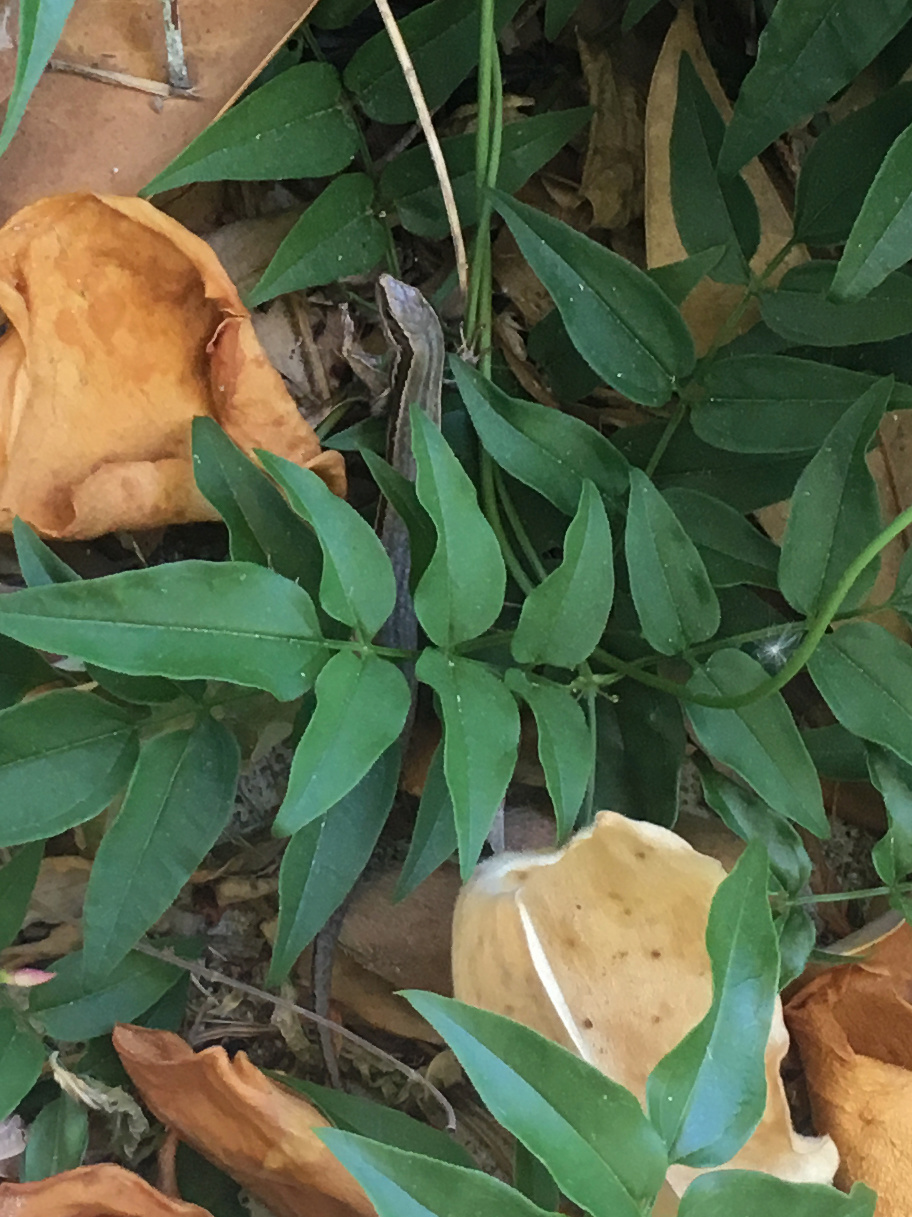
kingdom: Animalia
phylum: Chordata
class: Squamata
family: Scincidae
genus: Oligosoma
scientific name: Oligosoma maccanni
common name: Mccann’s skink
